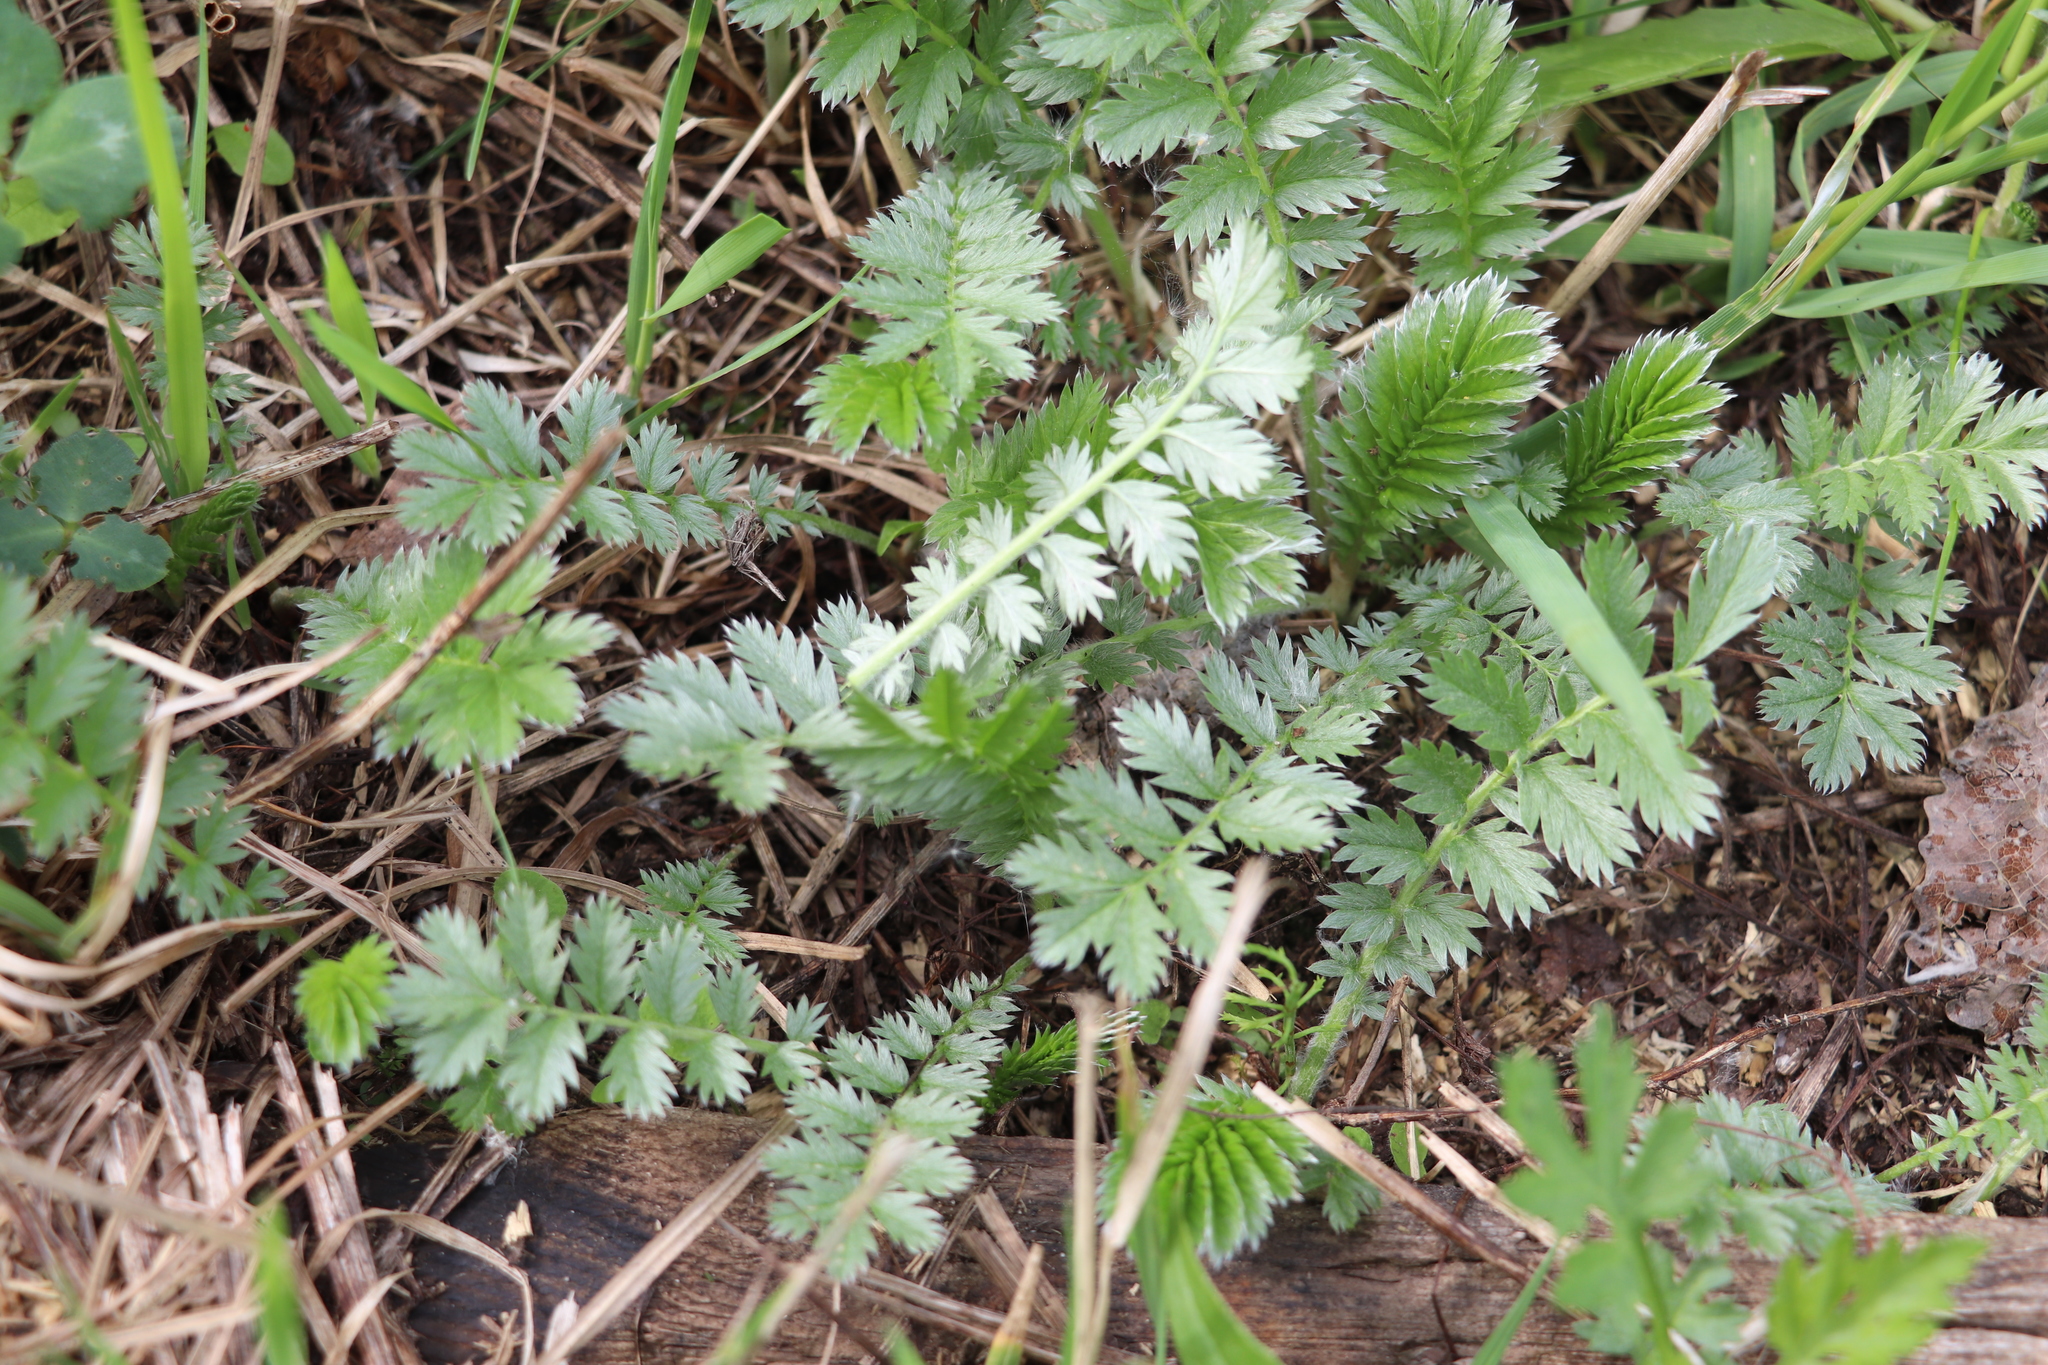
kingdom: Plantae
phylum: Tracheophyta
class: Magnoliopsida
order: Rosales
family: Rosaceae
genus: Argentina
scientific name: Argentina anserina
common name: Common silverweed
